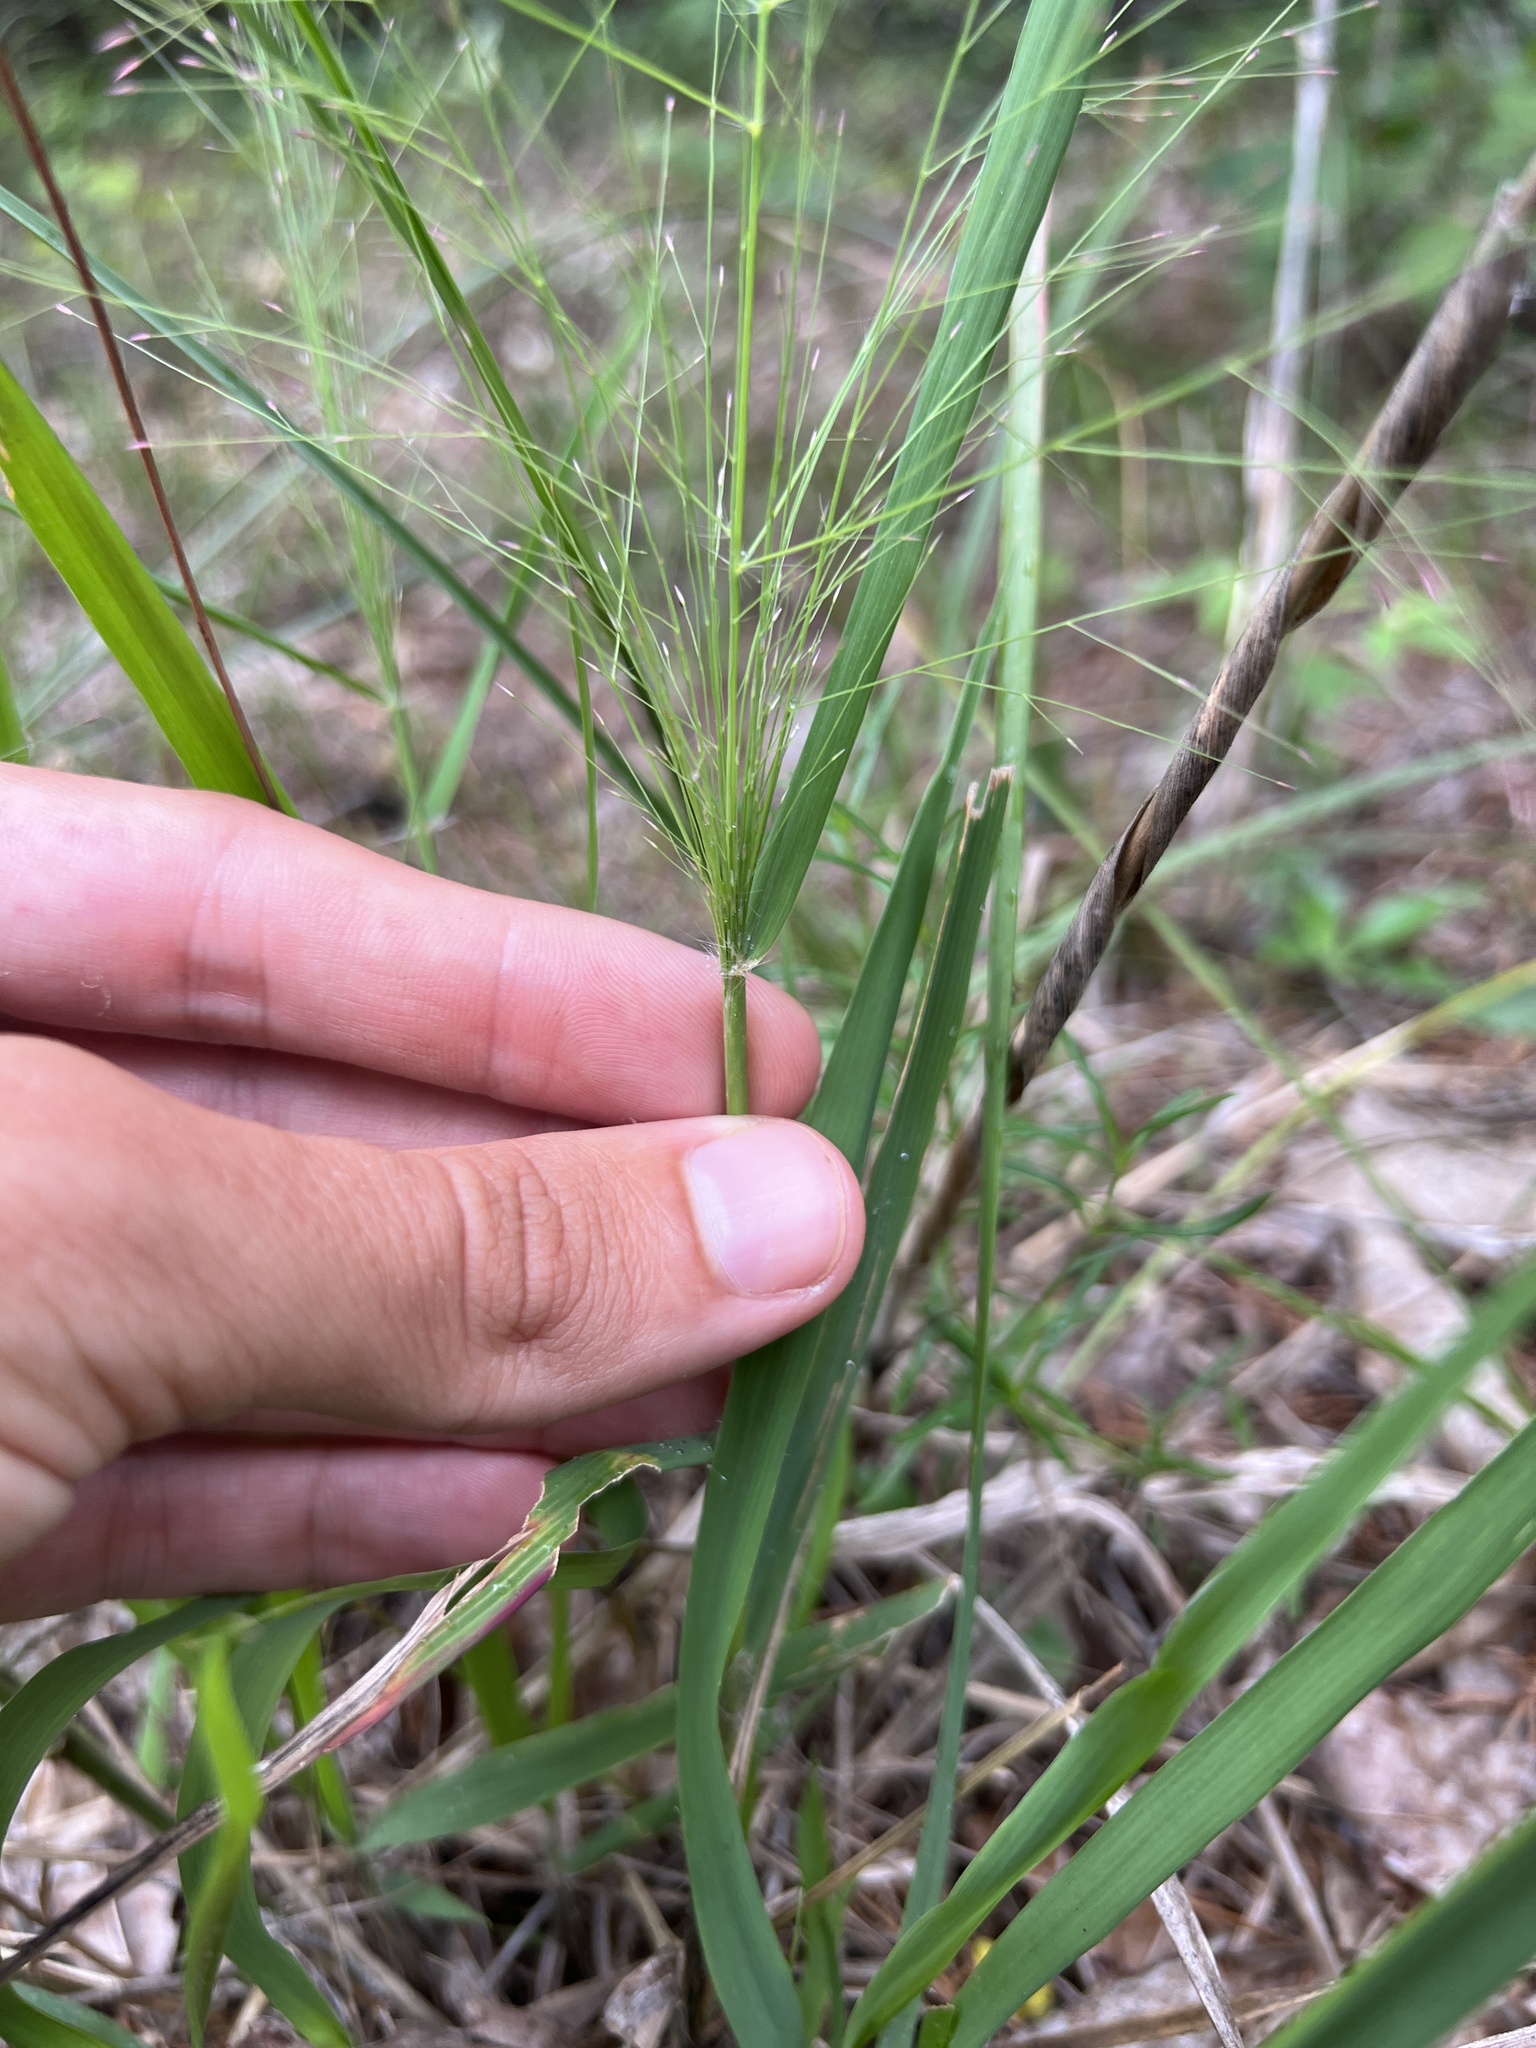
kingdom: Plantae
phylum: Tracheophyta
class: Liliopsida
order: Poales
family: Poaceae
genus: Eragrostis
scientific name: Eragrostis spectabilis
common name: Petticoat-climber
